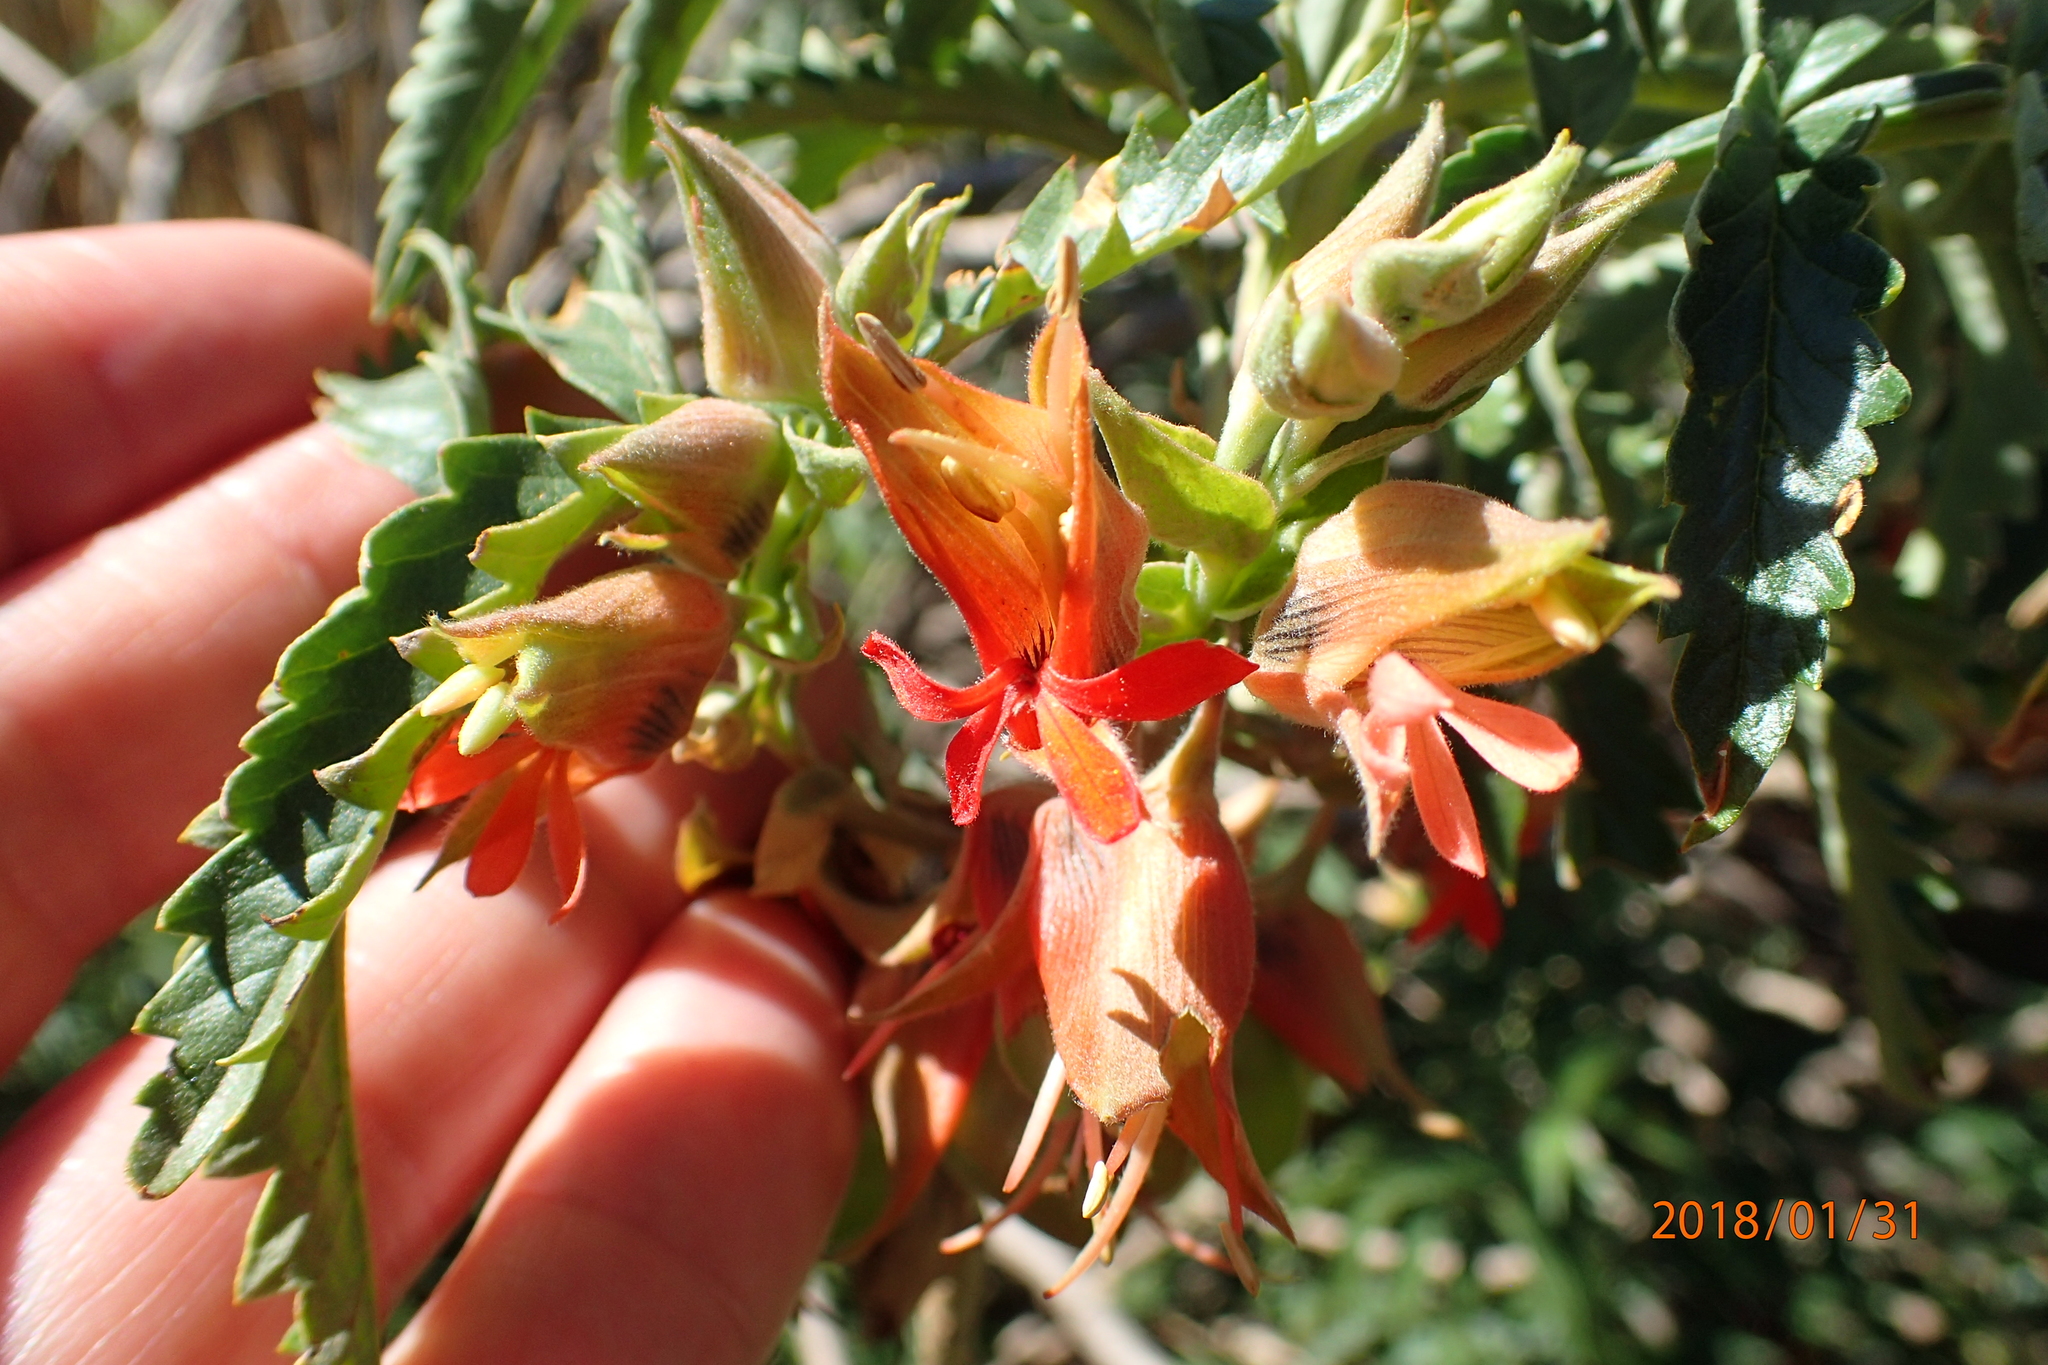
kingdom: Plantae
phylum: Tracheophyta
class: Magnoliopsida
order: Geraniales
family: Melianthaceae
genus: Melianthus
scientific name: Melianthus villosus
